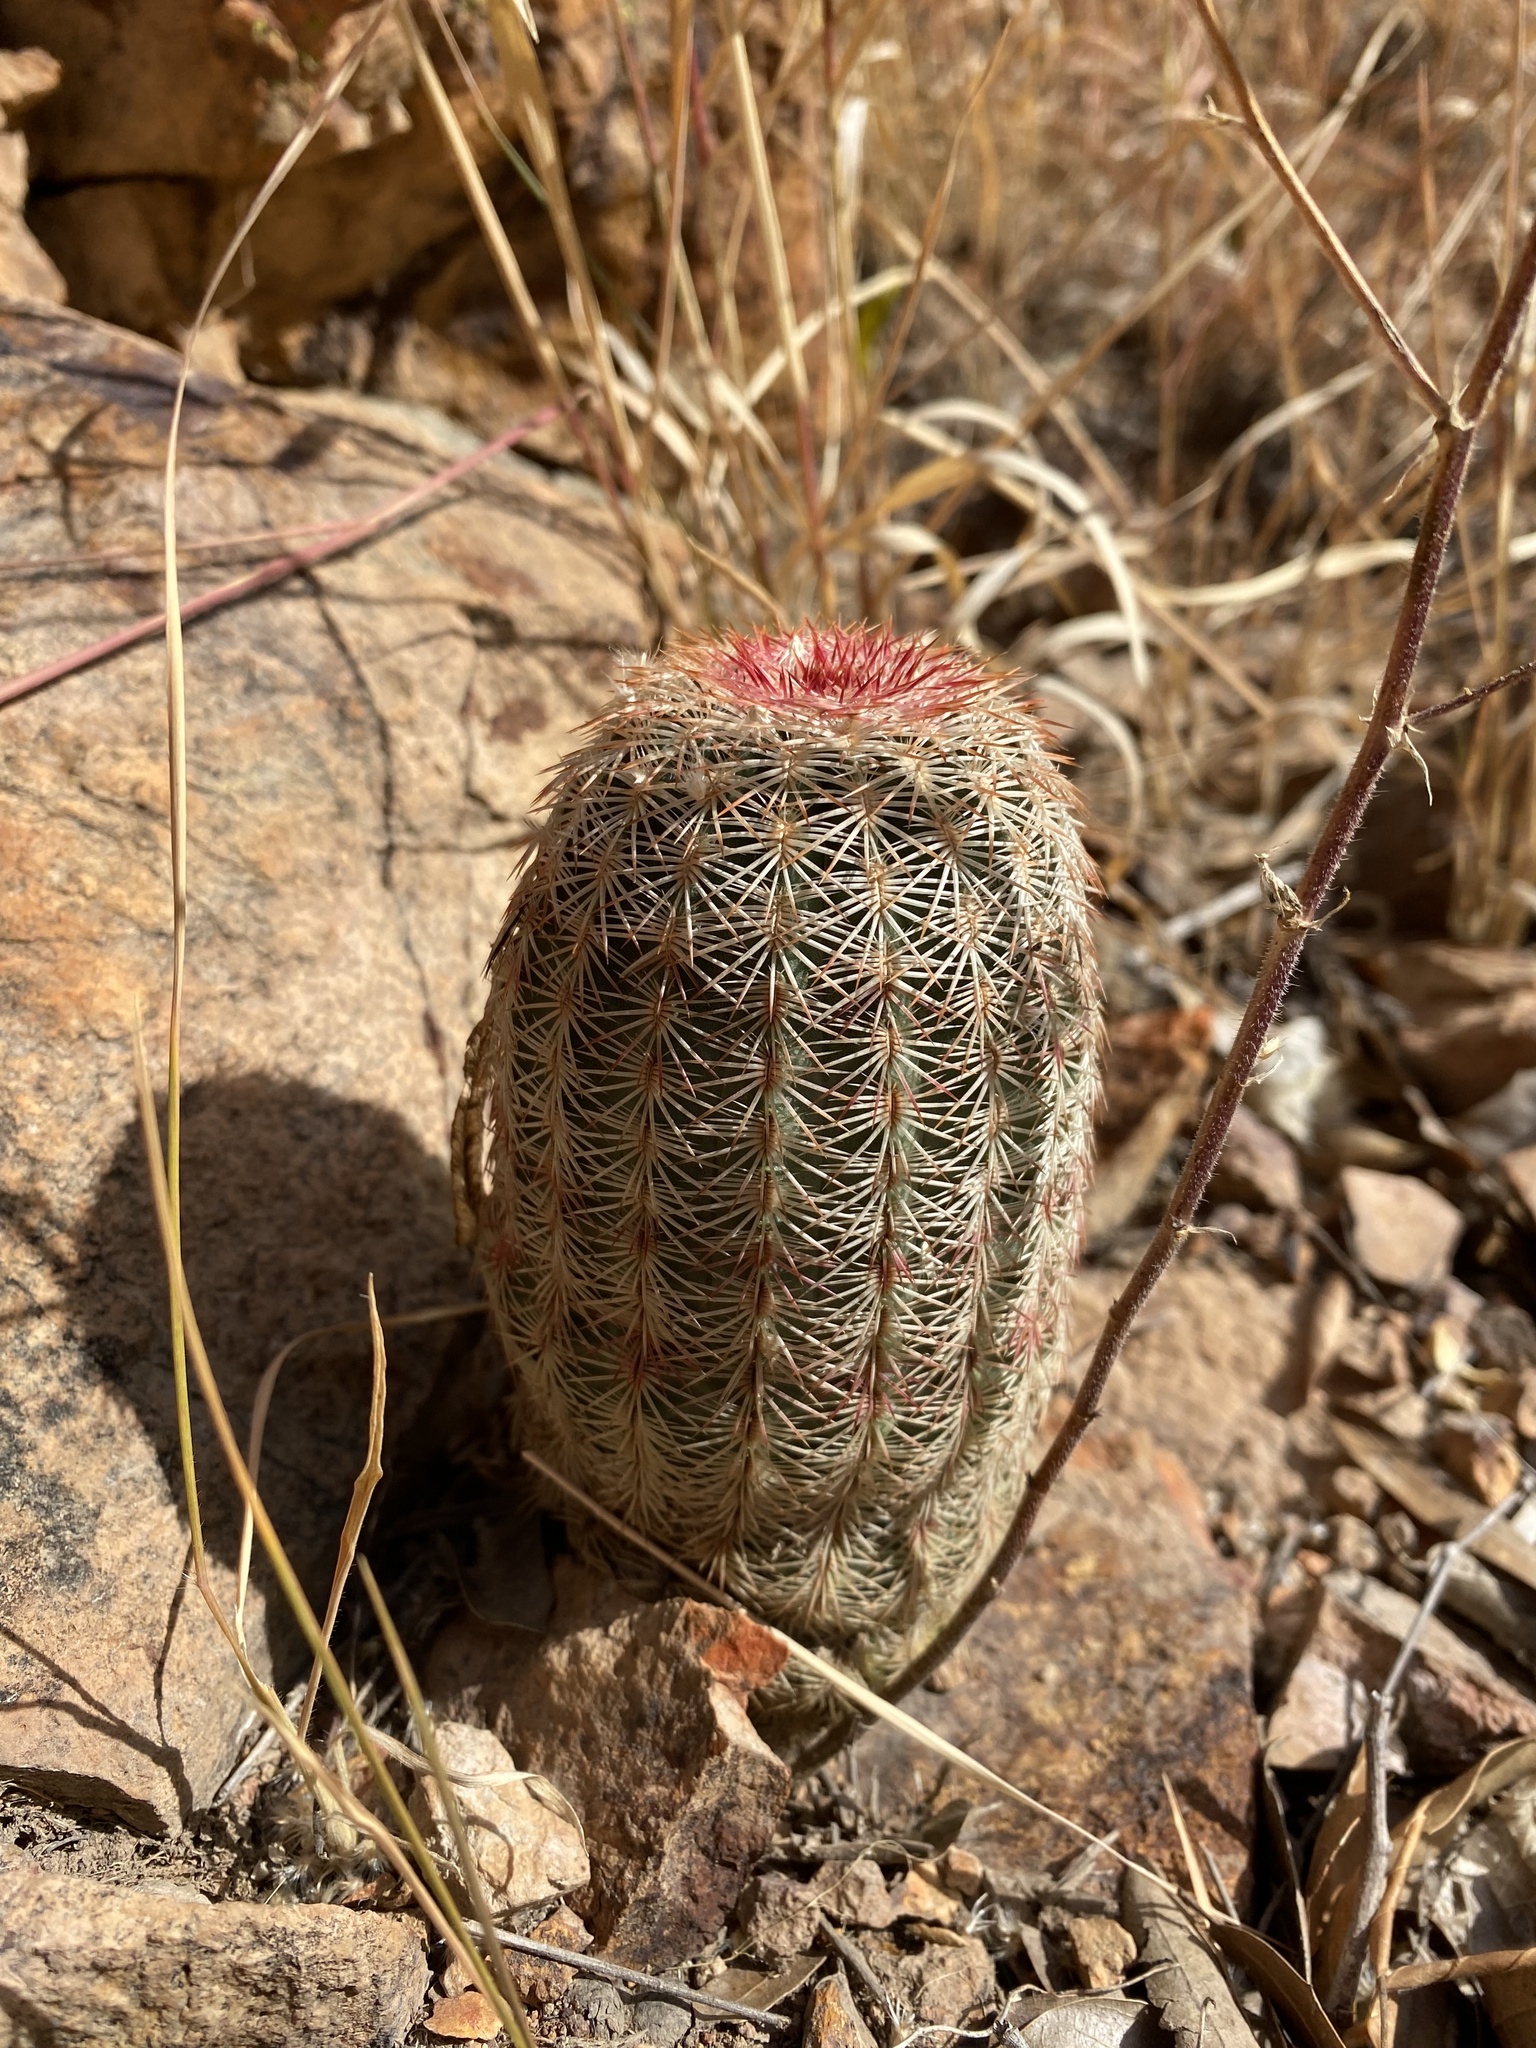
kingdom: Plantae
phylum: Tracheophyta
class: Magnoliopsida
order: Caryophyllales
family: Cactaceae
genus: Echinocereus
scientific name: Echinocereus rigidissimus
